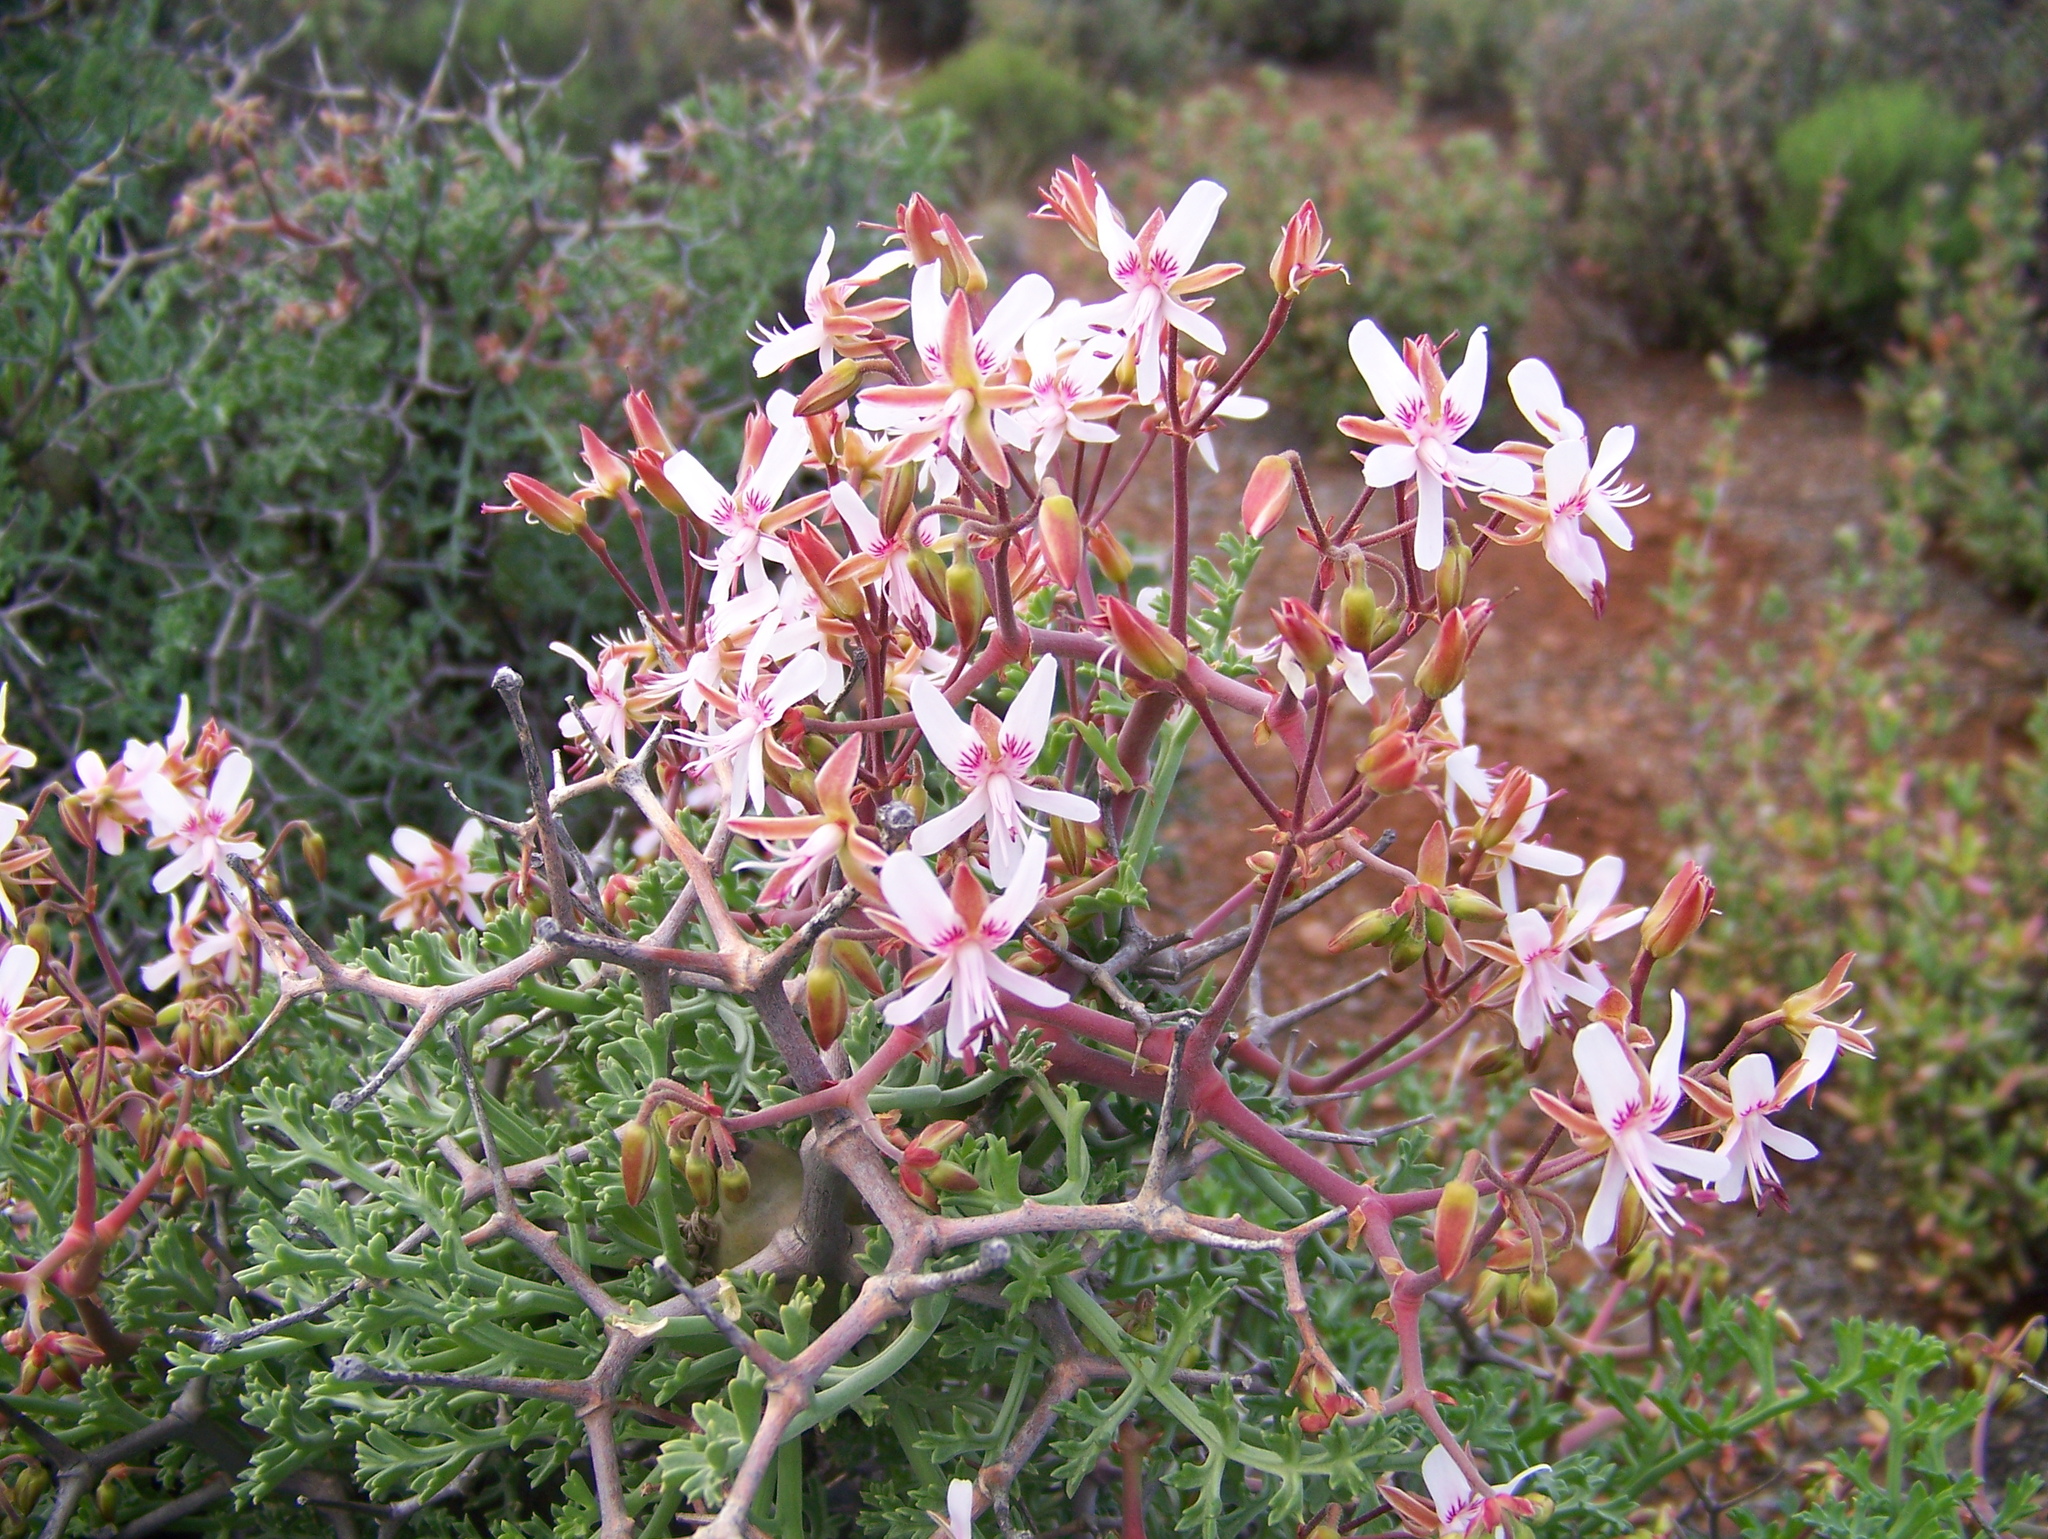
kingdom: Plantae
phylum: Tracheophyta
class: Magnoliopsida
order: Geraniales
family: Geraniaceae
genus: Pelargonium
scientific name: Pelargonium crithmifolium
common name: Samphire-leaf pelargonium
